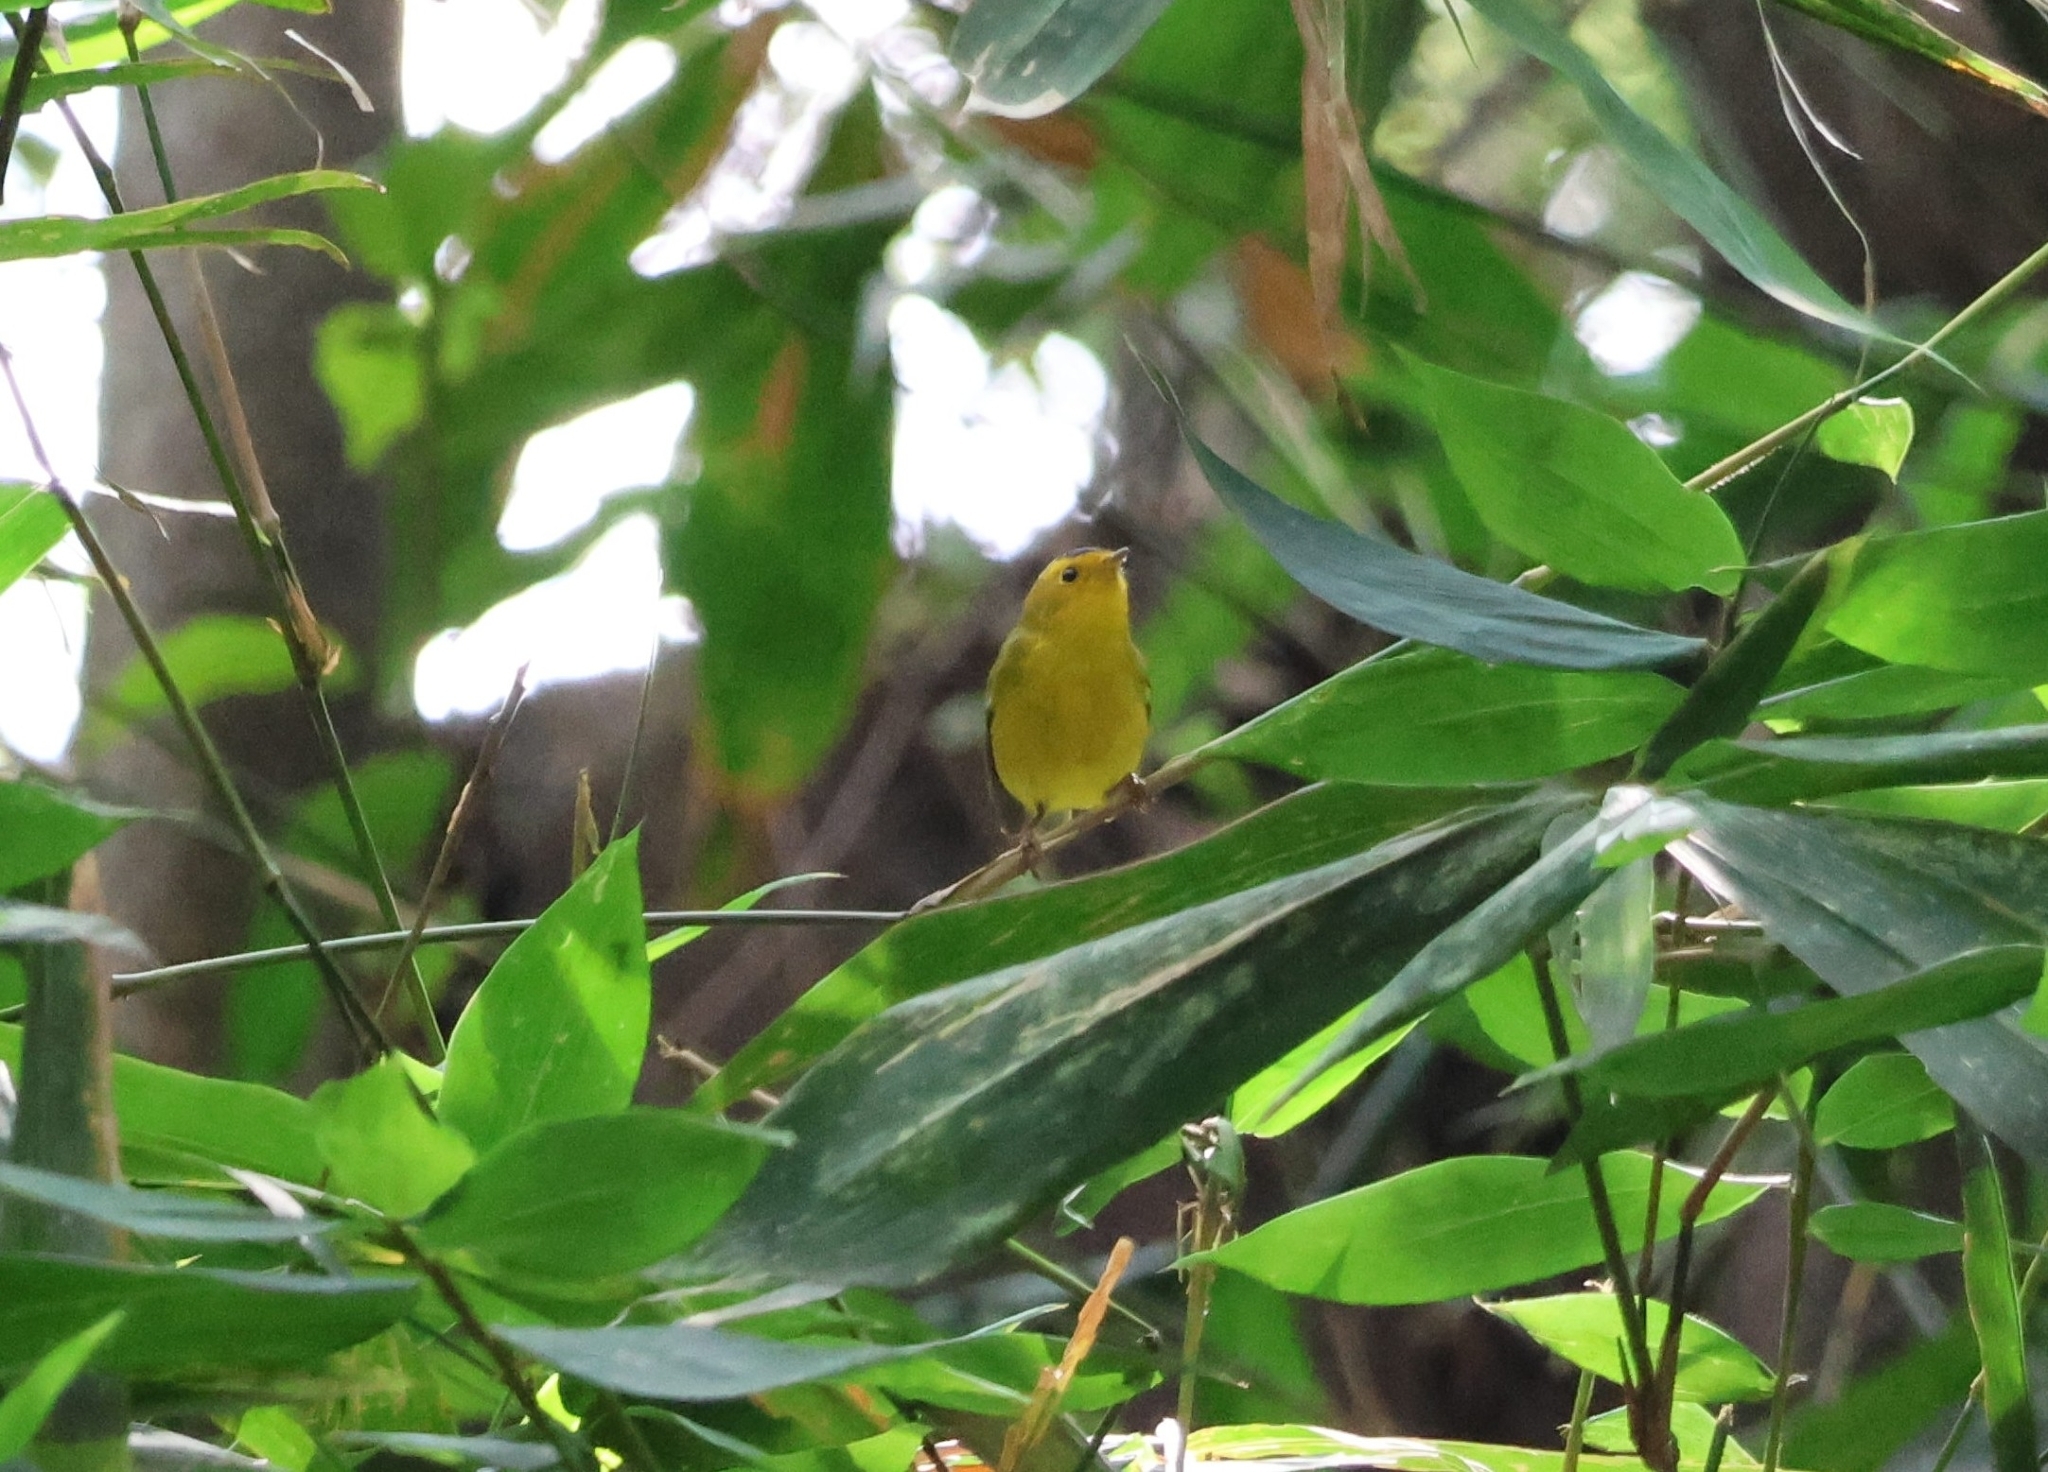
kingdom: Animalia
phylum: Chordata
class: Aves
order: Passeriformes
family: Parulidae
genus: Cardellina
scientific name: Cardellina pusilla
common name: Wilson's warbler
